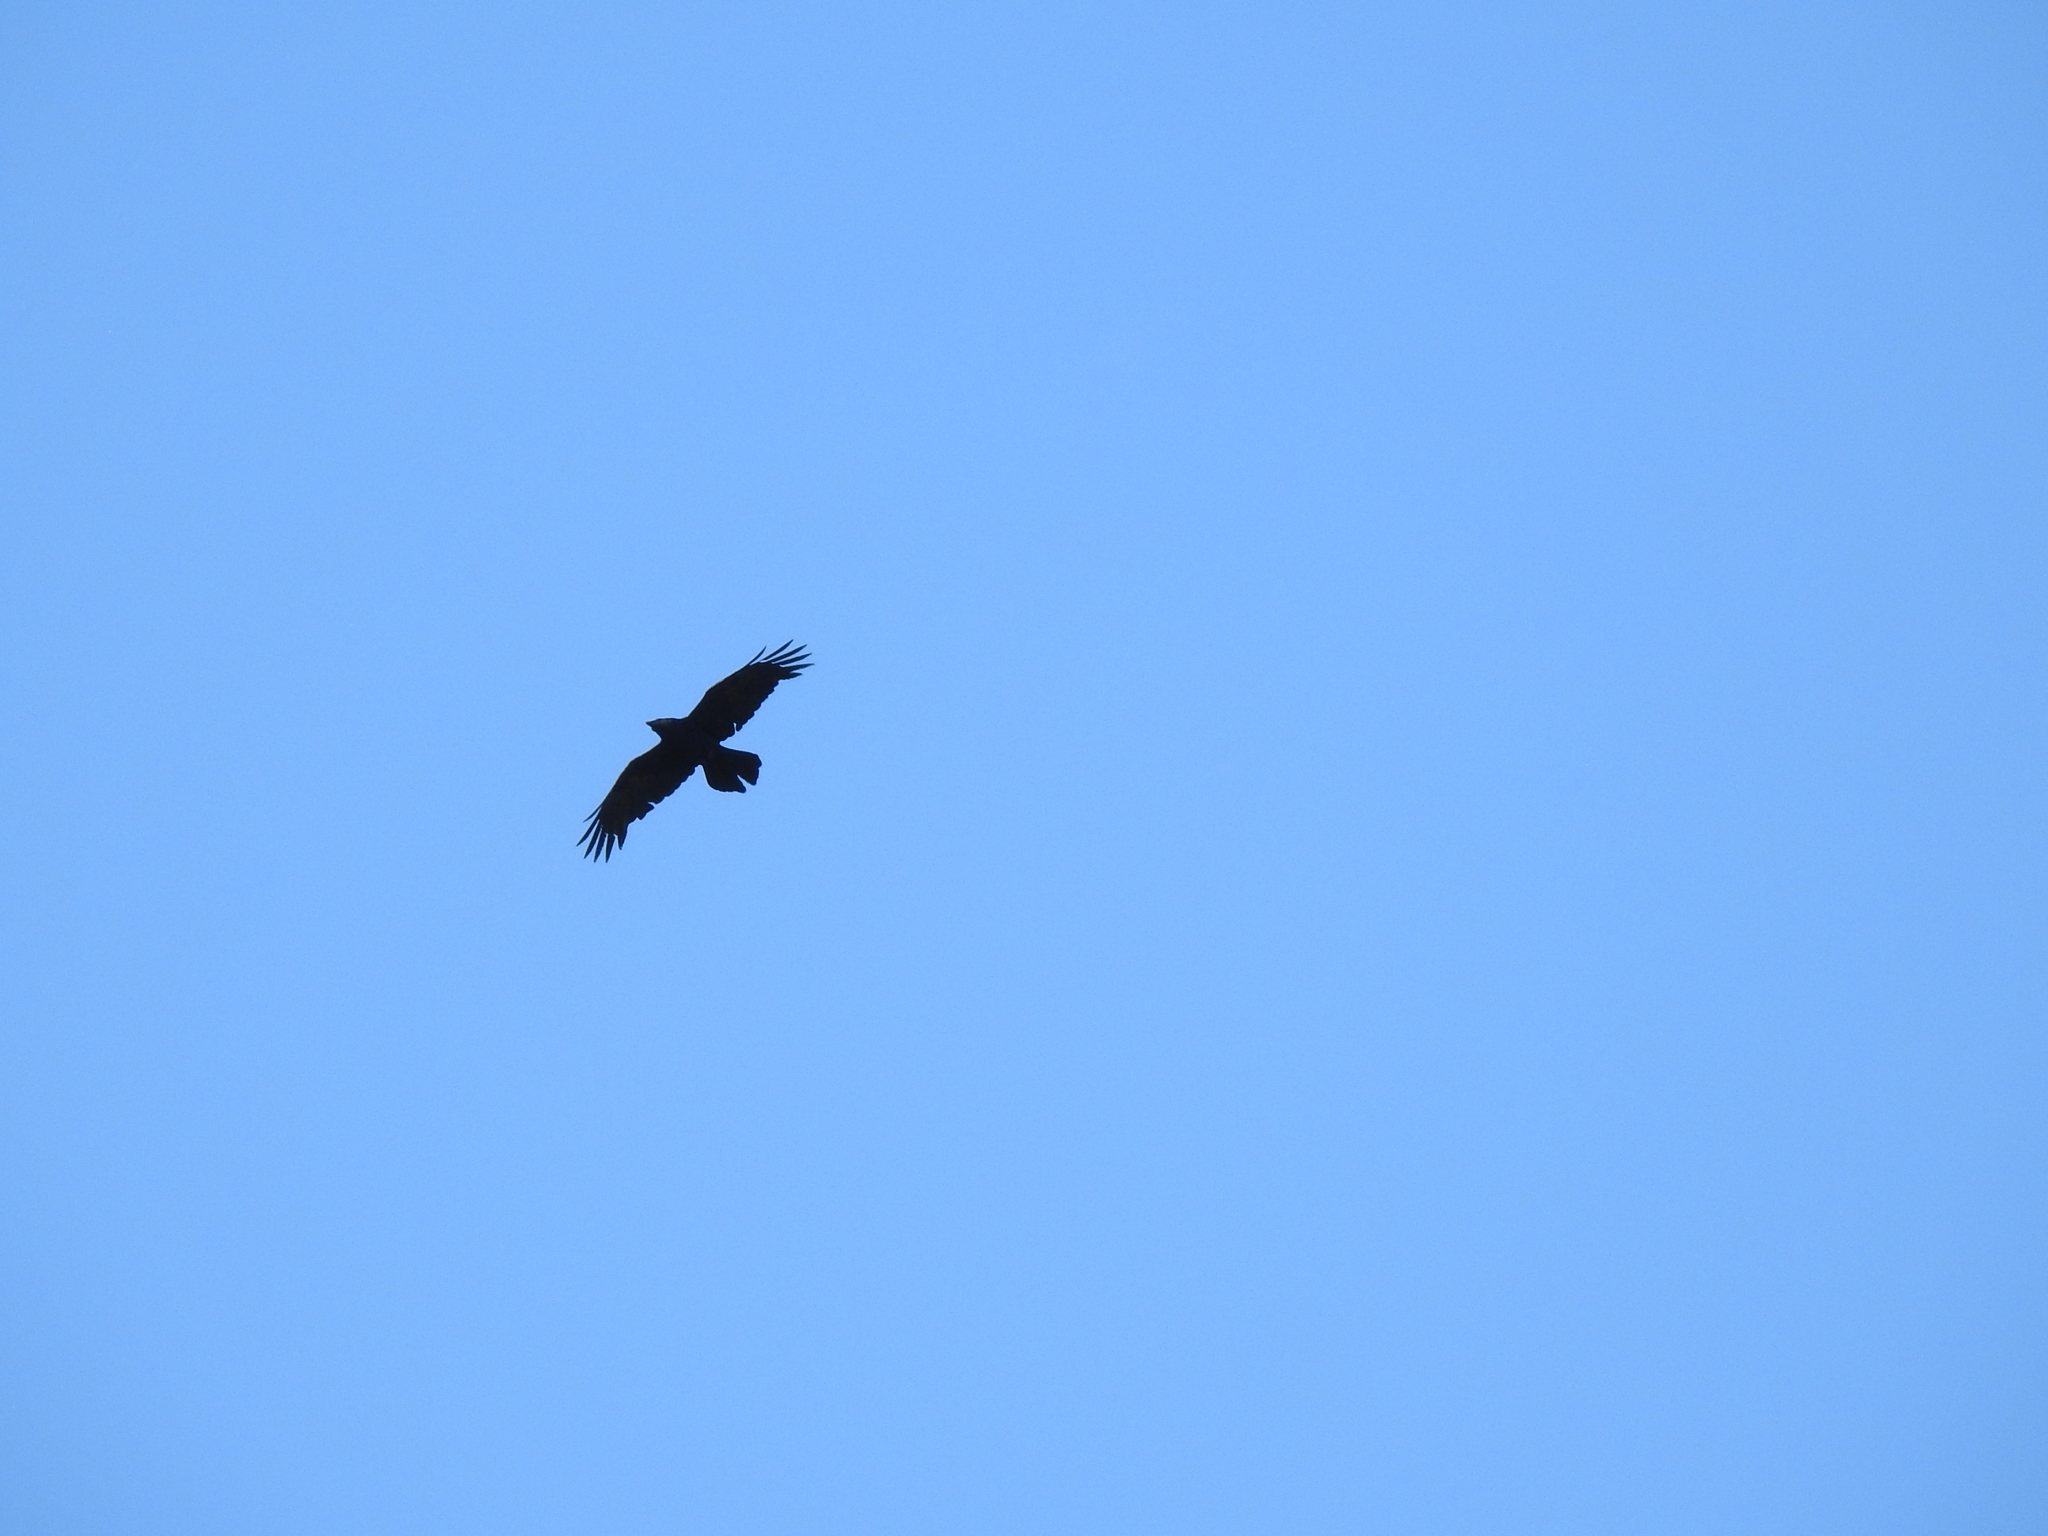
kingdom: Animalia
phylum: Chordata
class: Aves
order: Passeriformes
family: Corvidae
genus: Corvus
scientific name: Corvus corax
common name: Common raven
